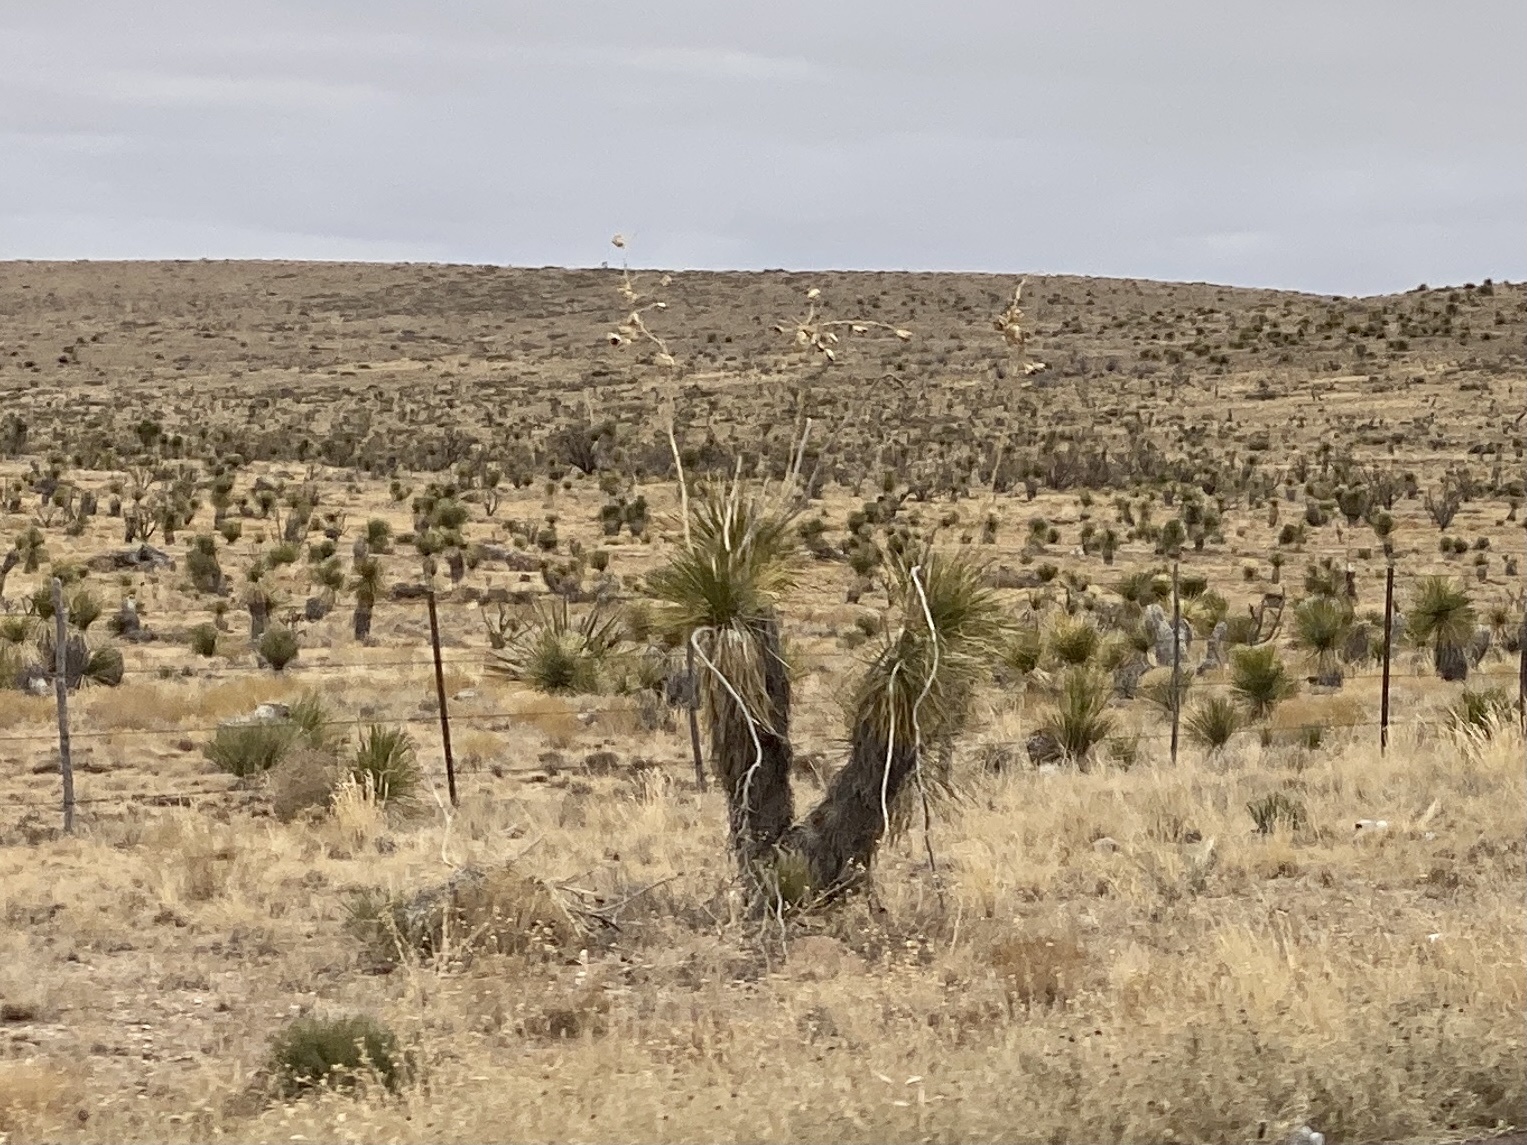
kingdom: Plantae
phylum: Tracheophyta
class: Liliopsida
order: Asparagales
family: Asparagaceae
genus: Yucca
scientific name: Yucca elata
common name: Palmella
